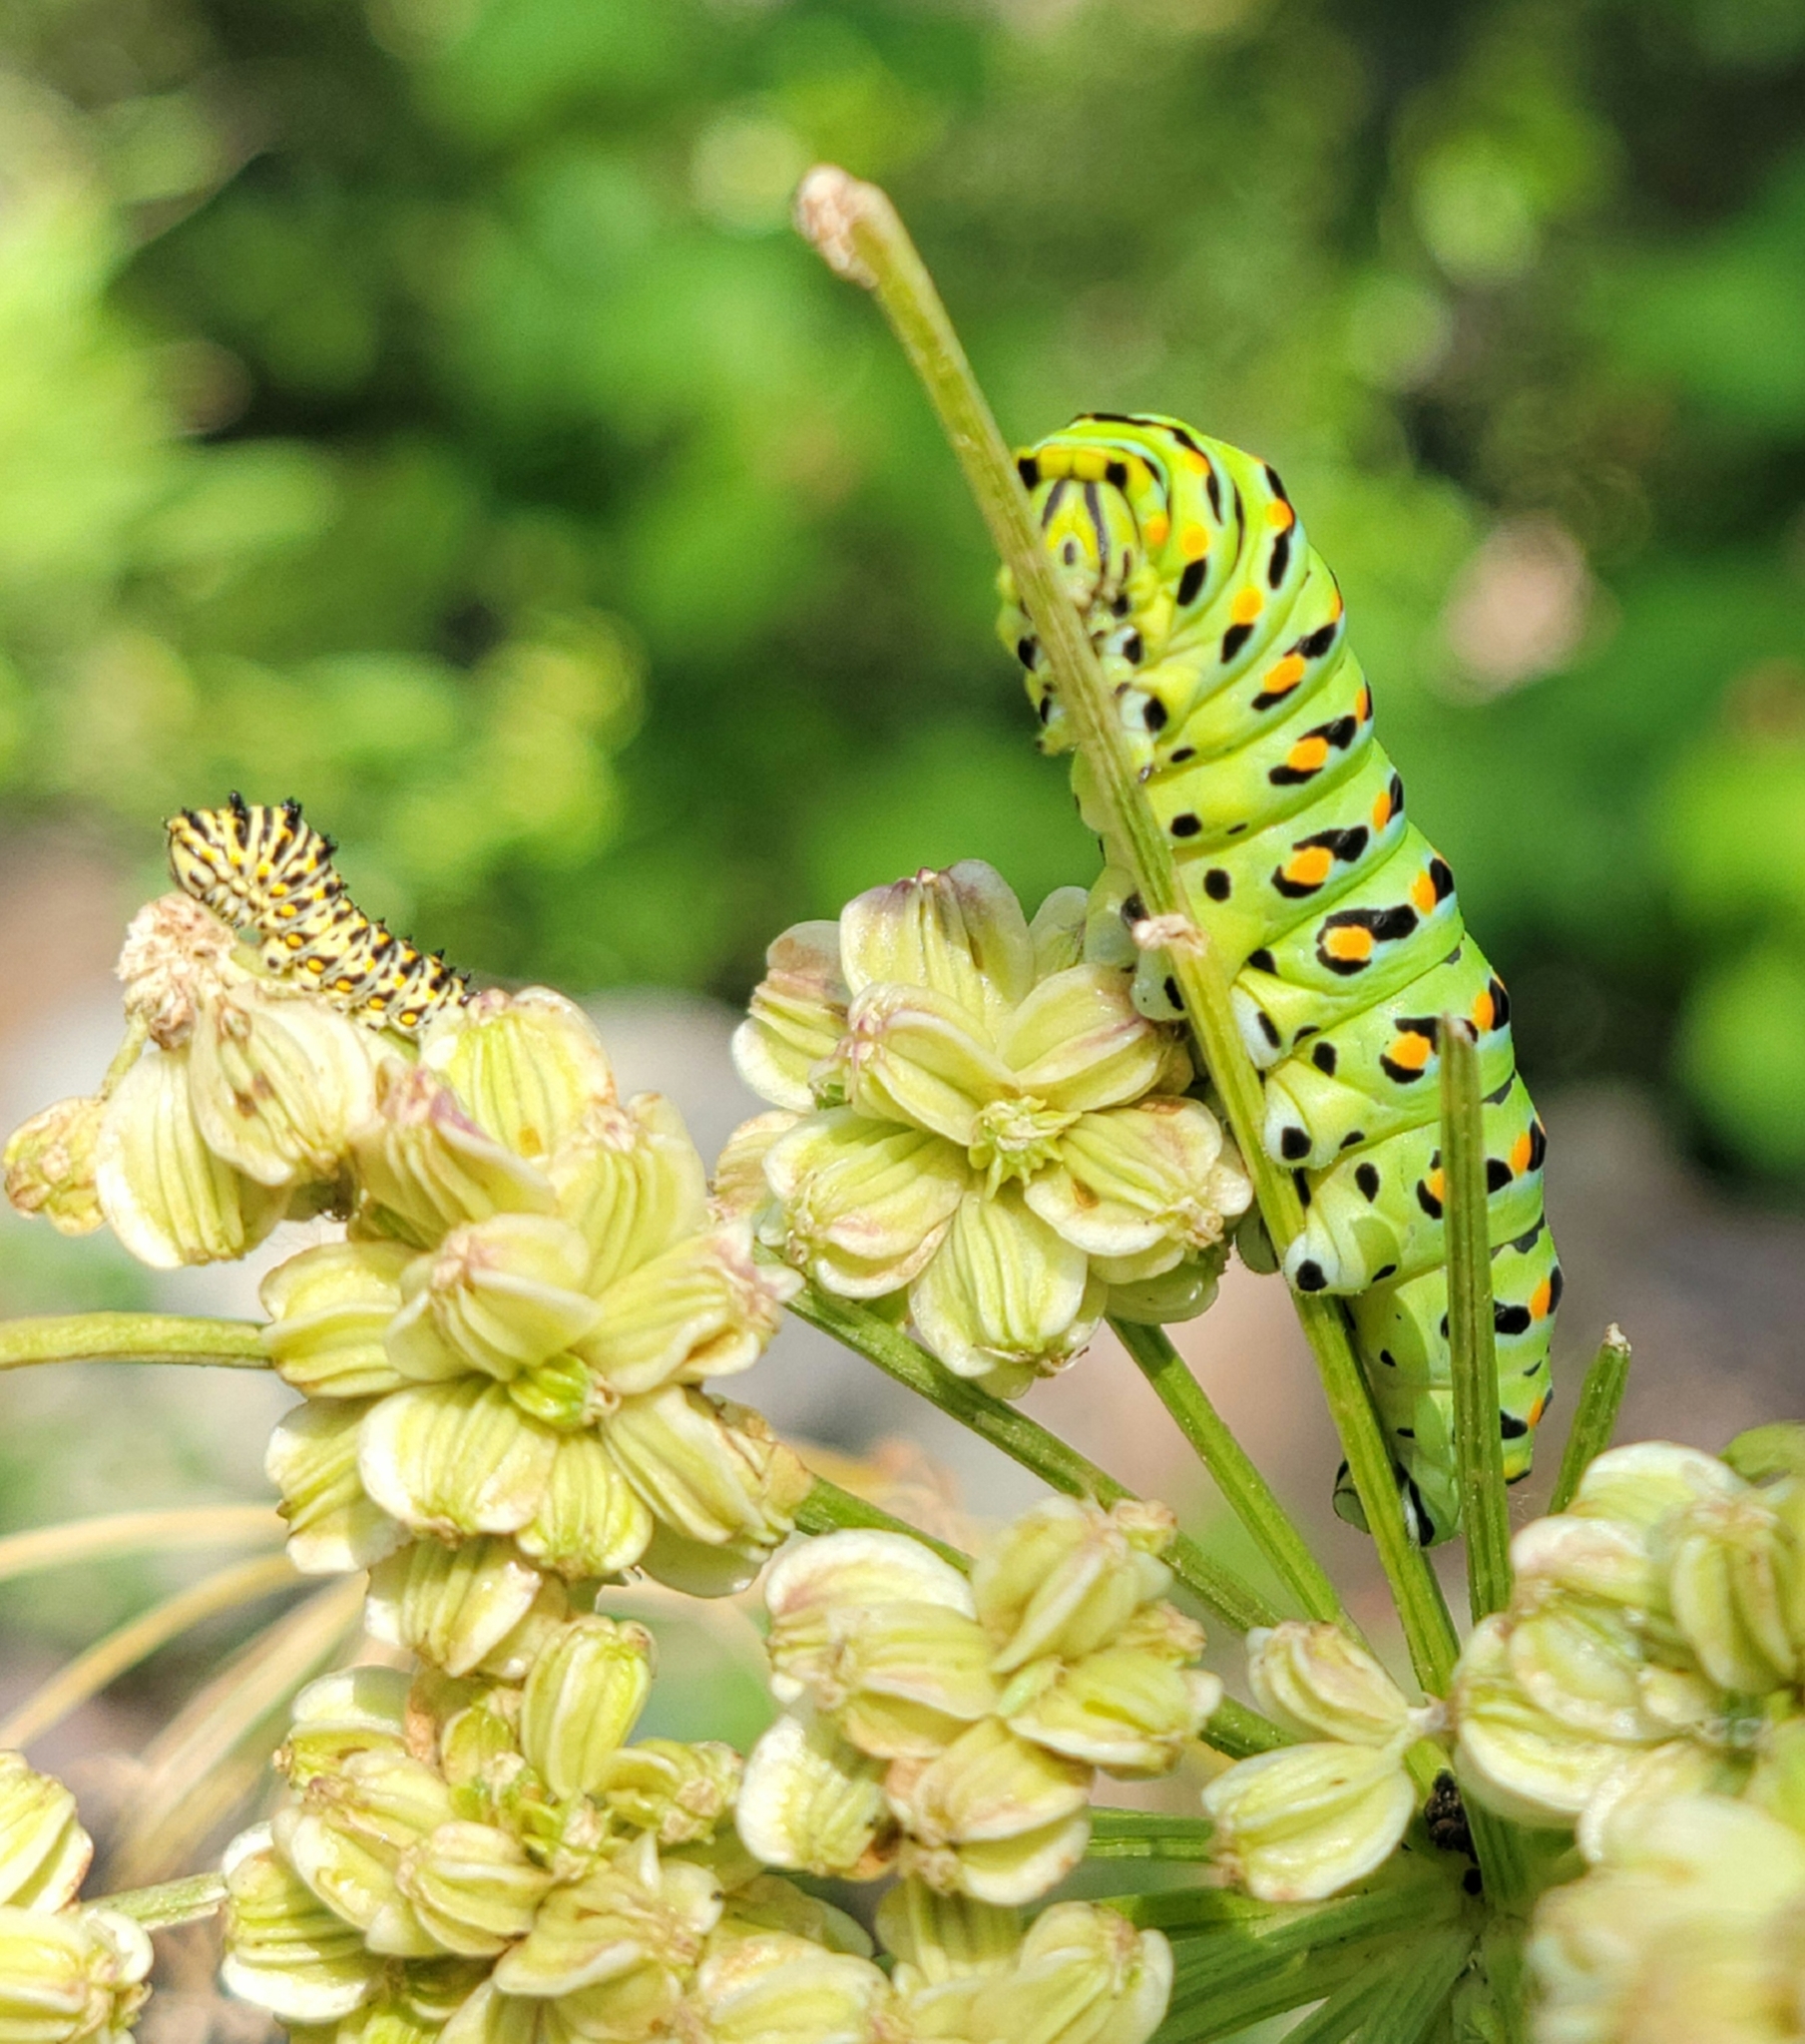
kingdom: Animalia
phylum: Arthropoda
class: Insecta
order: Lepidoptera
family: Papilionidae
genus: Papilio
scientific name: Papilio zelicaon
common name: Anise swallowtail
